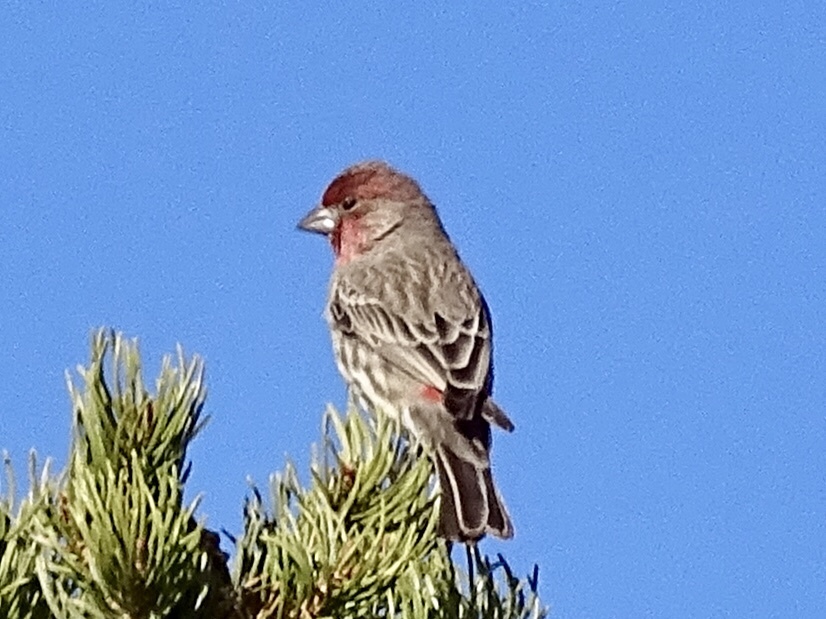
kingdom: Animalia
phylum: Chordata
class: Aves
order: Passeriformes
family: Fringillidae
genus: Haemorhous
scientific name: Haemorhous mexicanus
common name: House finch
